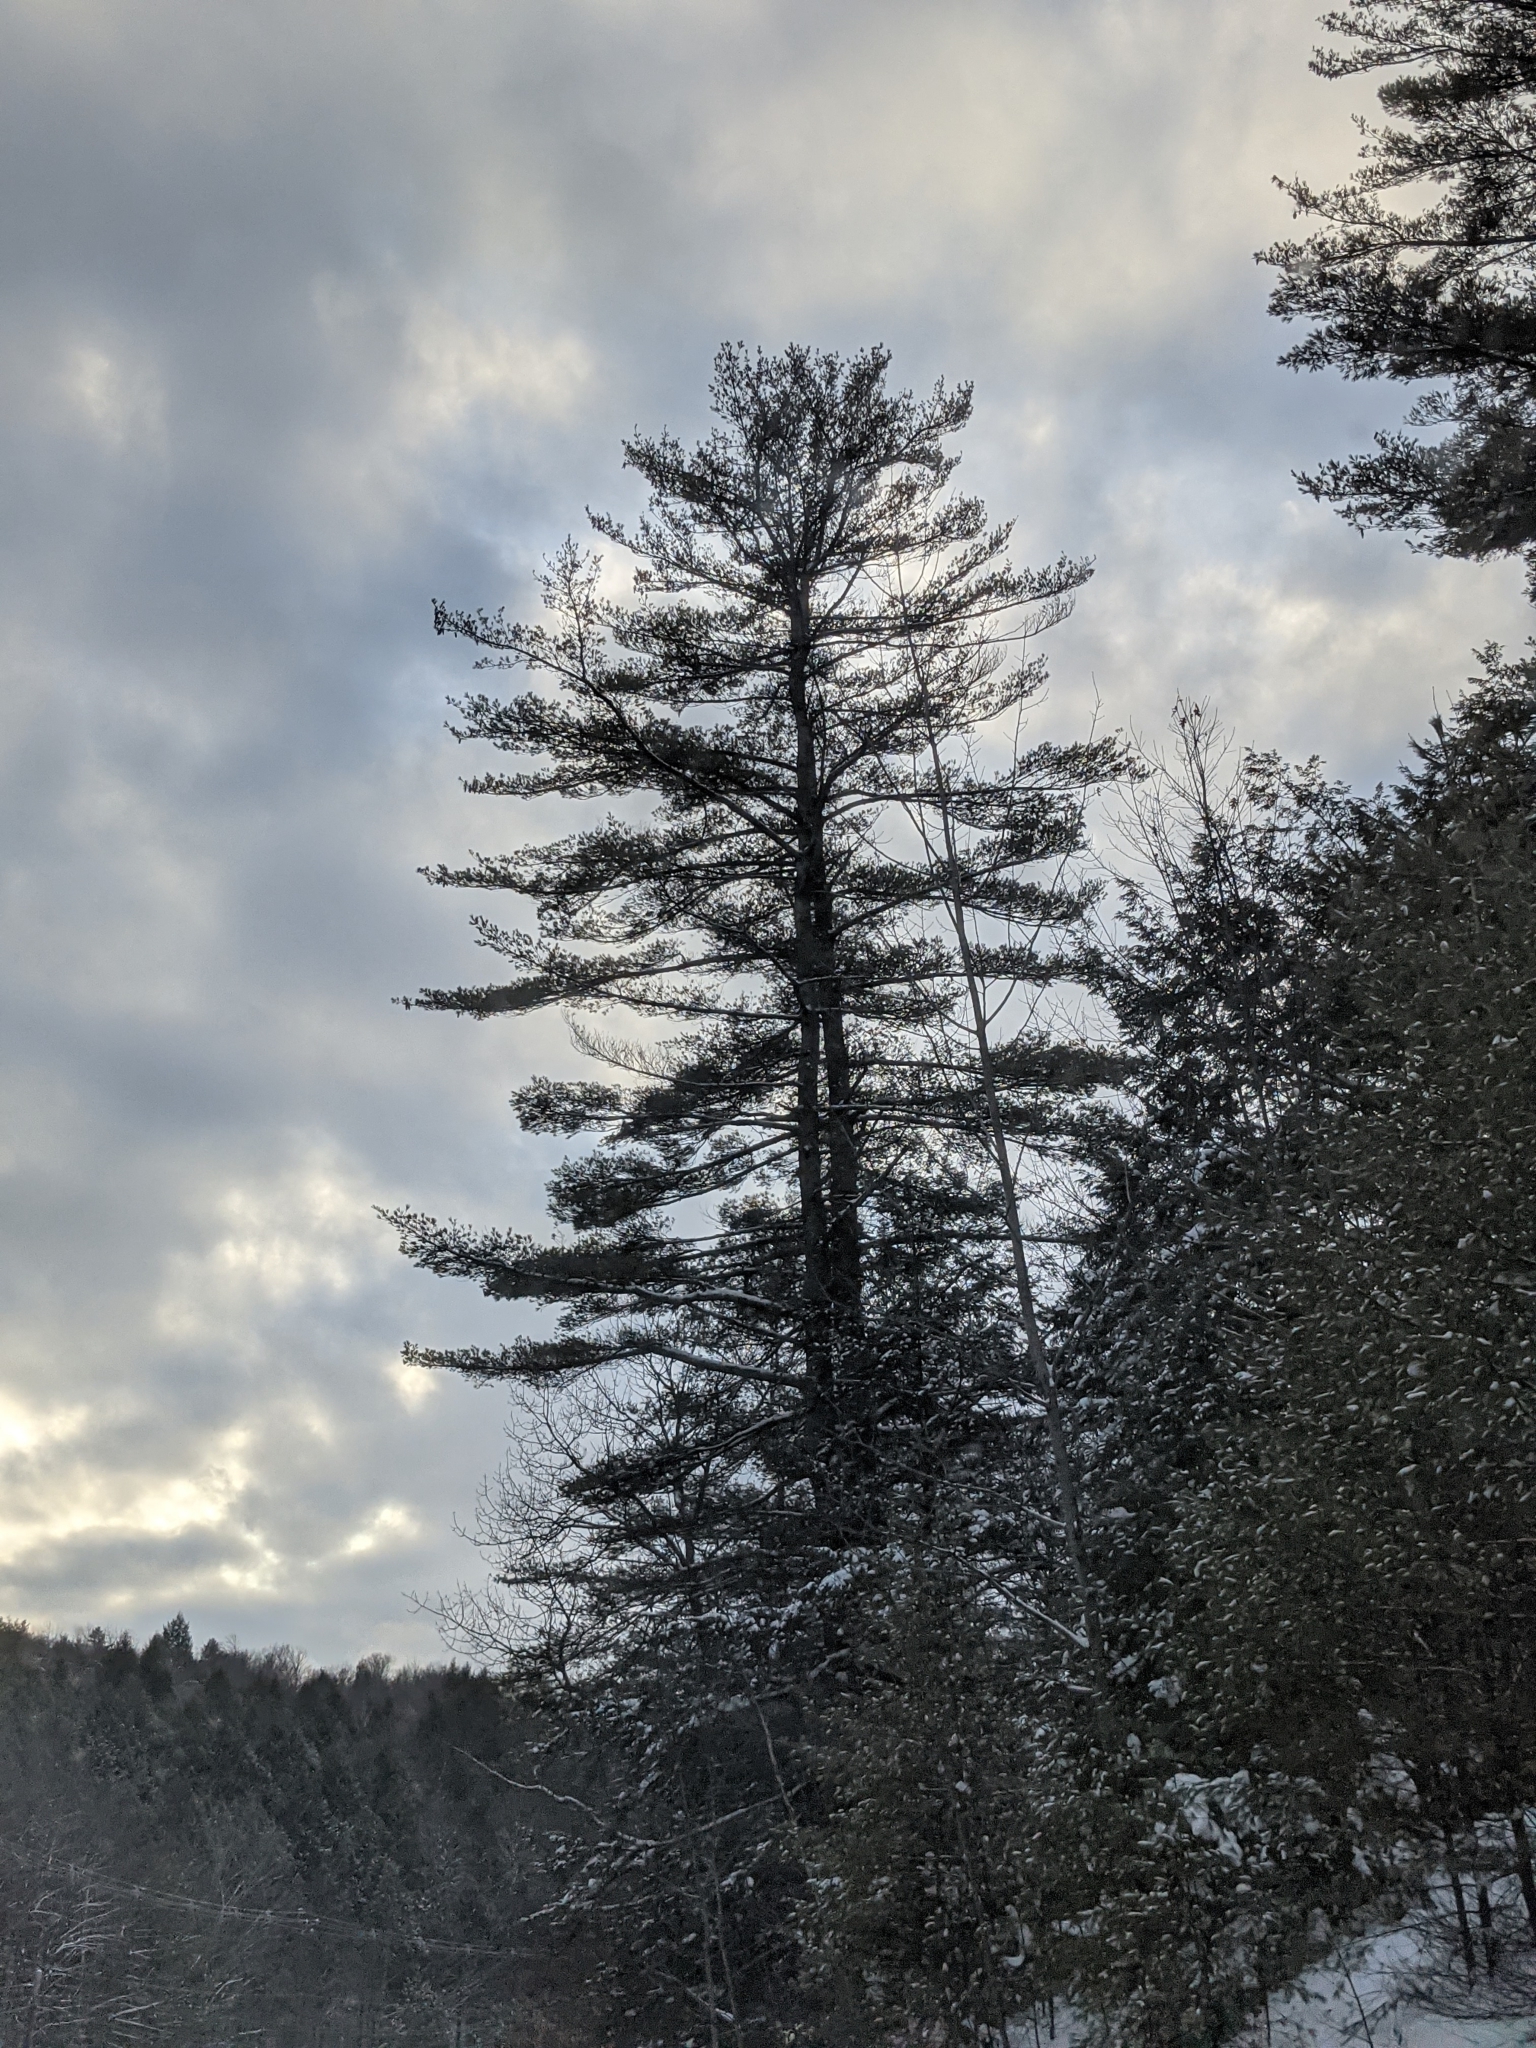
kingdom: Plantae
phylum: Tracheophyta
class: Pinopsida
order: Pinales
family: Pinaceae
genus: Pinus
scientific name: Pinus strobus
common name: Weymouth pine
